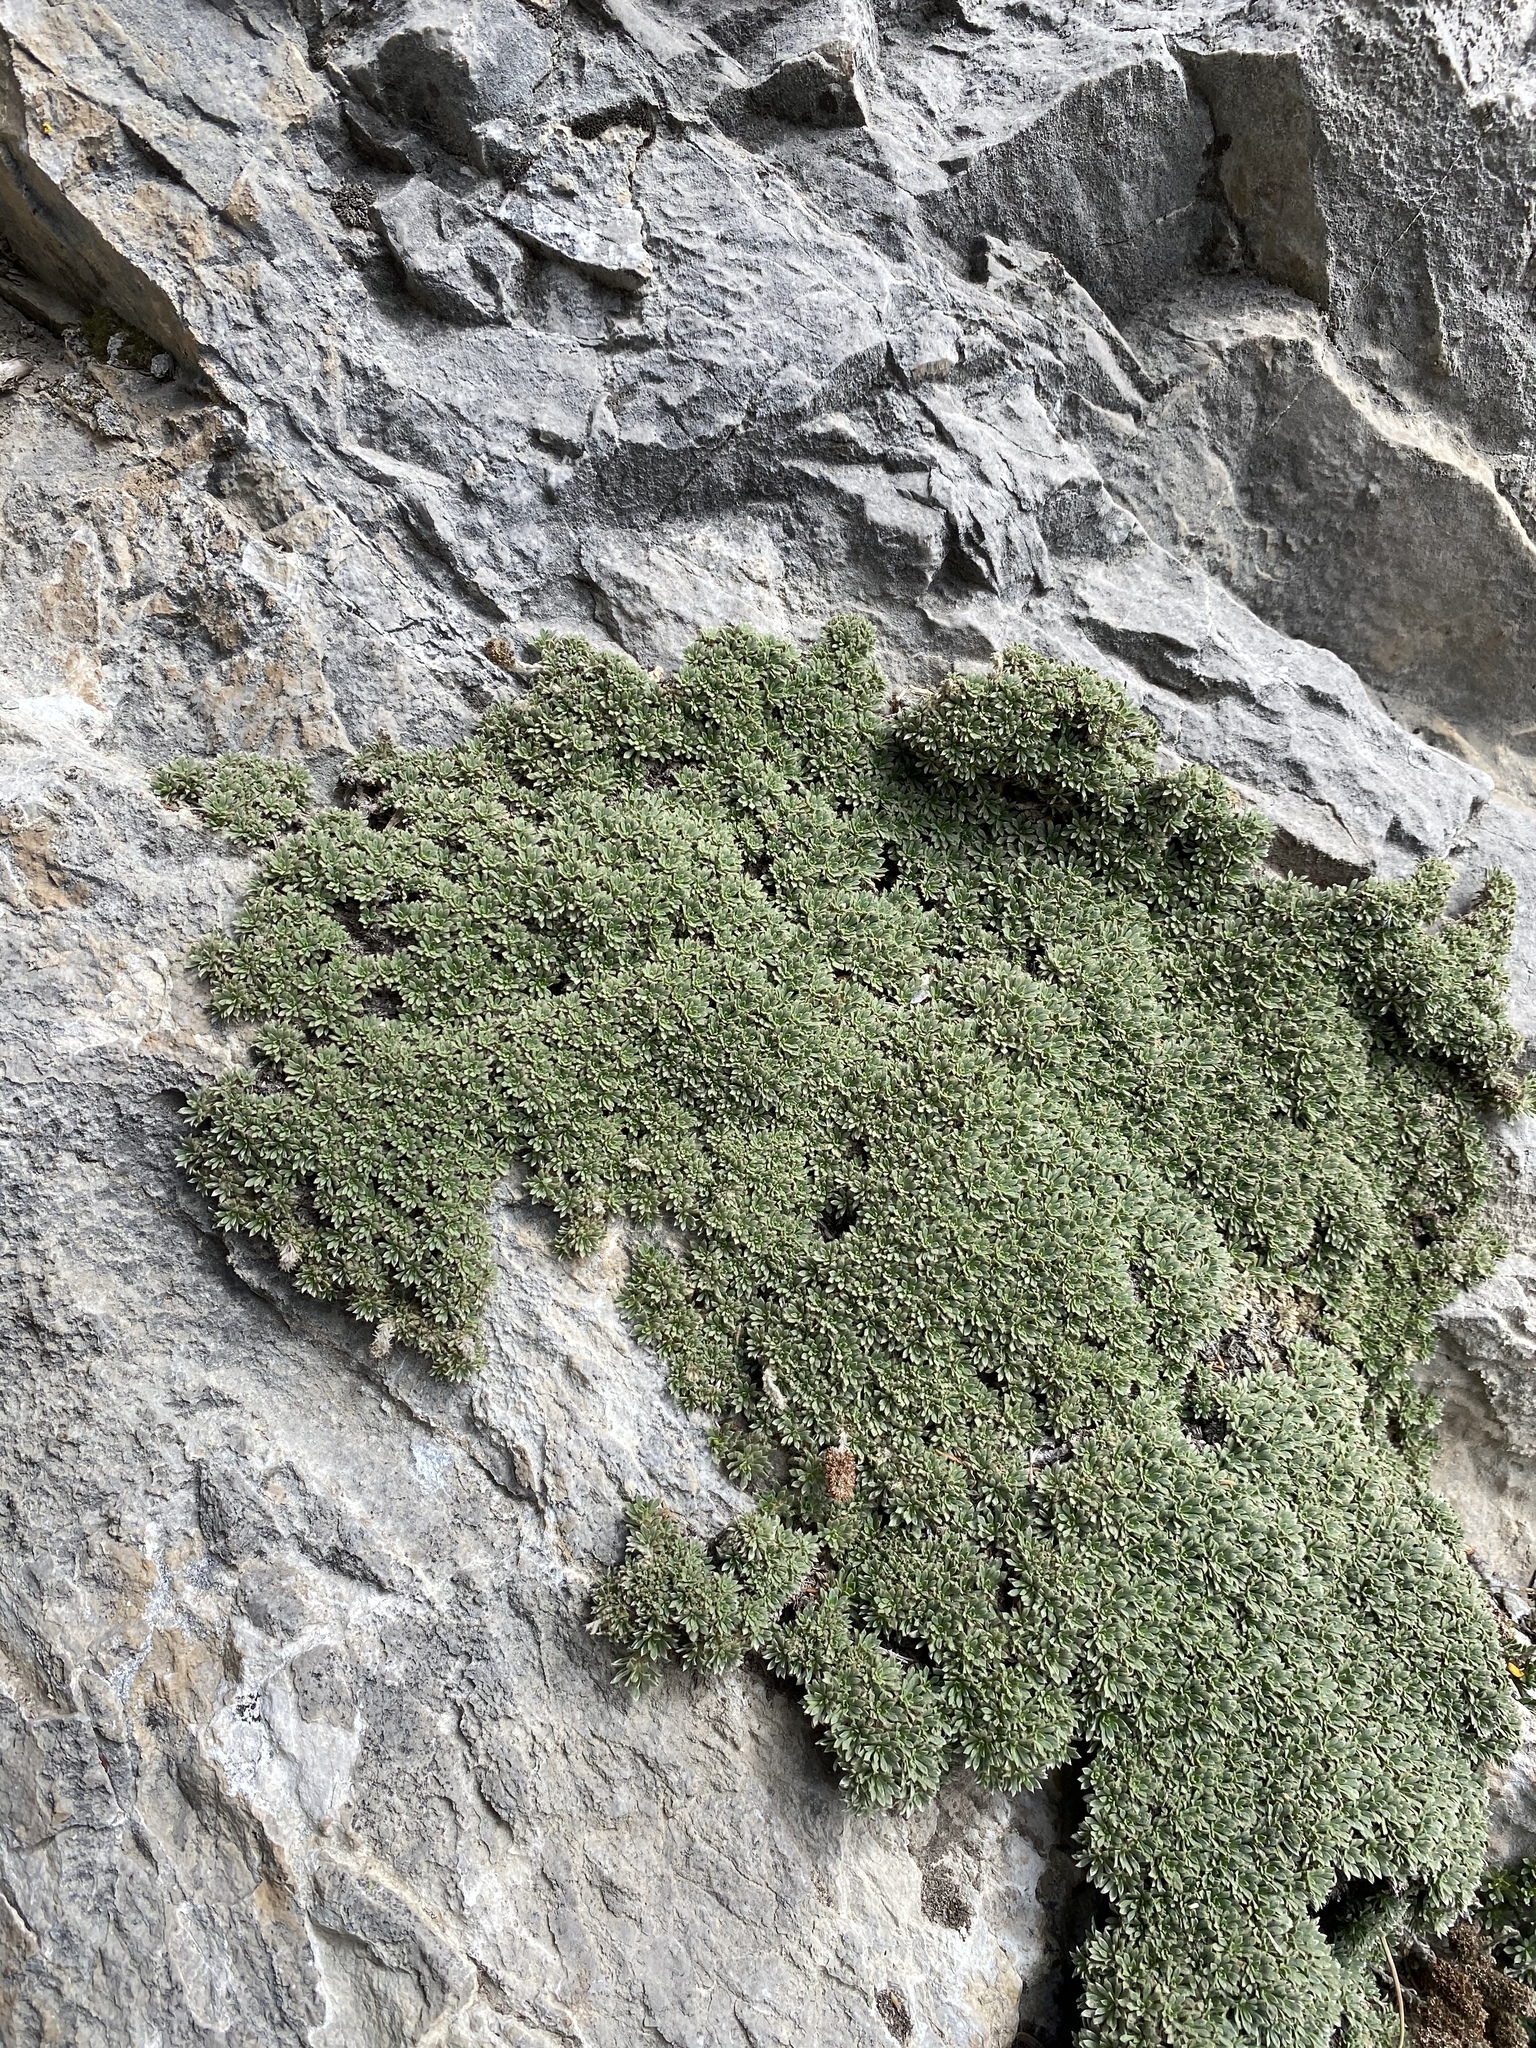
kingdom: Plantae
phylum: Tracheophyta
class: Magnoliopsida
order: Rosales
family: Rosaceae
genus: Petrophytum
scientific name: Petrophytum caespitosum
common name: Mat rockspirea
